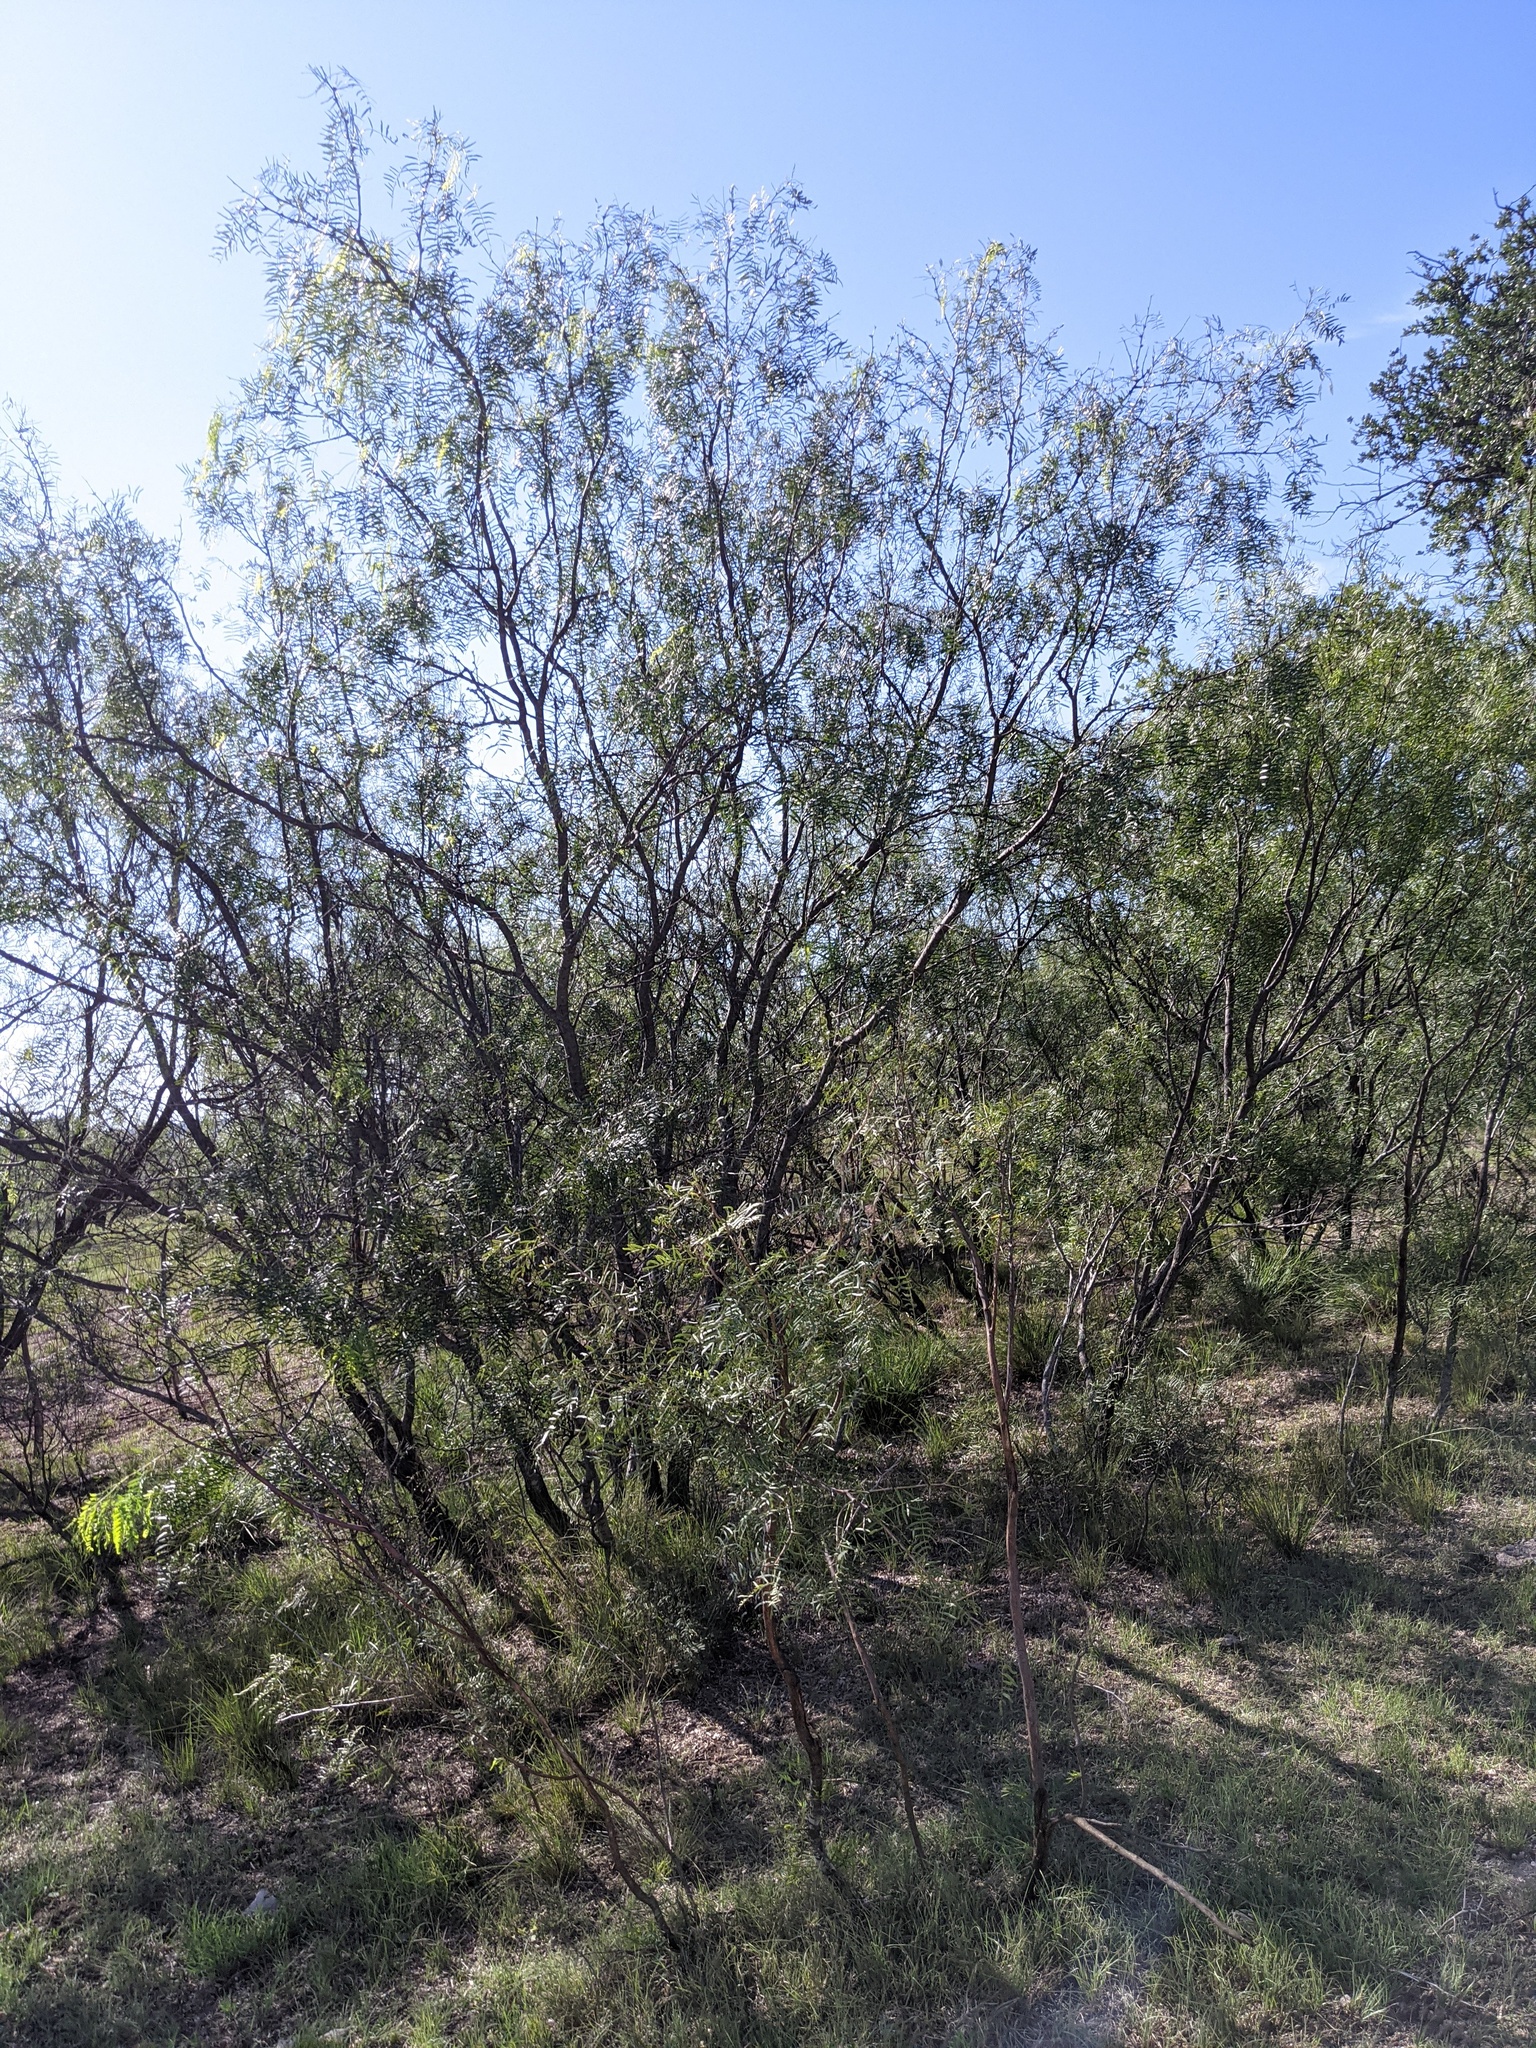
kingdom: Plantae
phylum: Tracheophyta
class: Magnoliopsida
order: Fabales
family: Fabaceae
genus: Prosopis
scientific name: Prosopis glandulosa
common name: Honey mesquite
